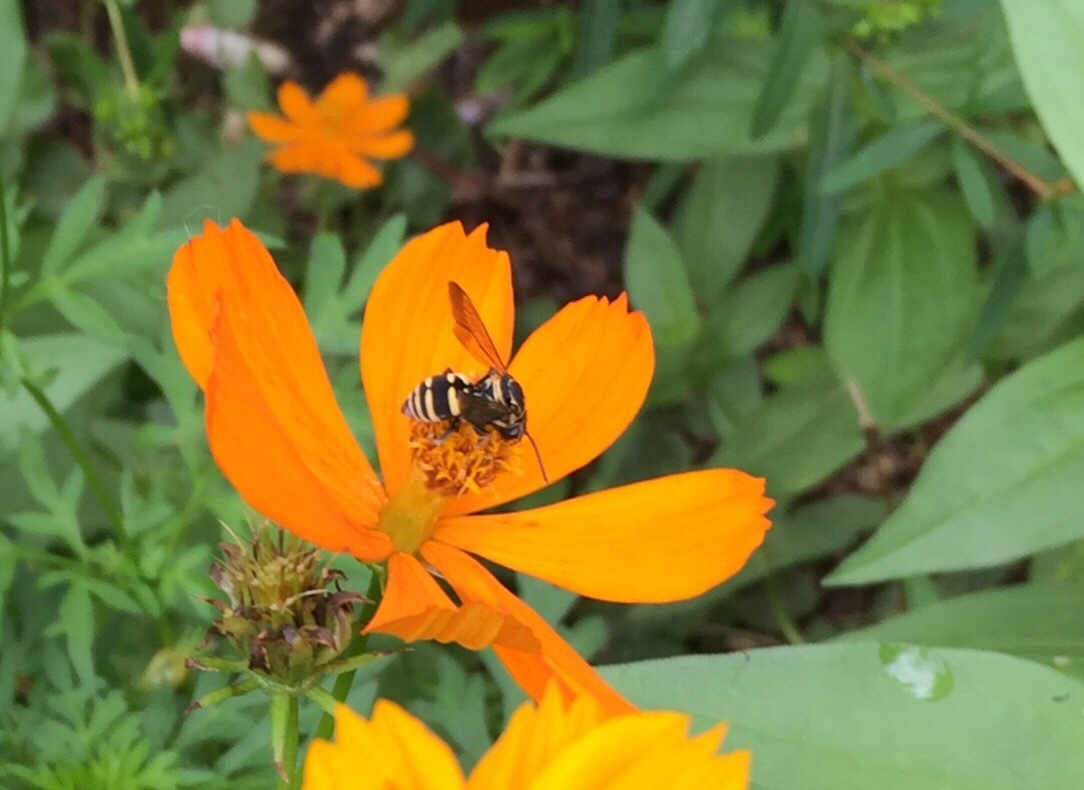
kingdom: Animalia
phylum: Arthropoda
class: Insecta
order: Hymenoptera
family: Apidae
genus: Triepeolus
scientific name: Triepeolus lunatus
